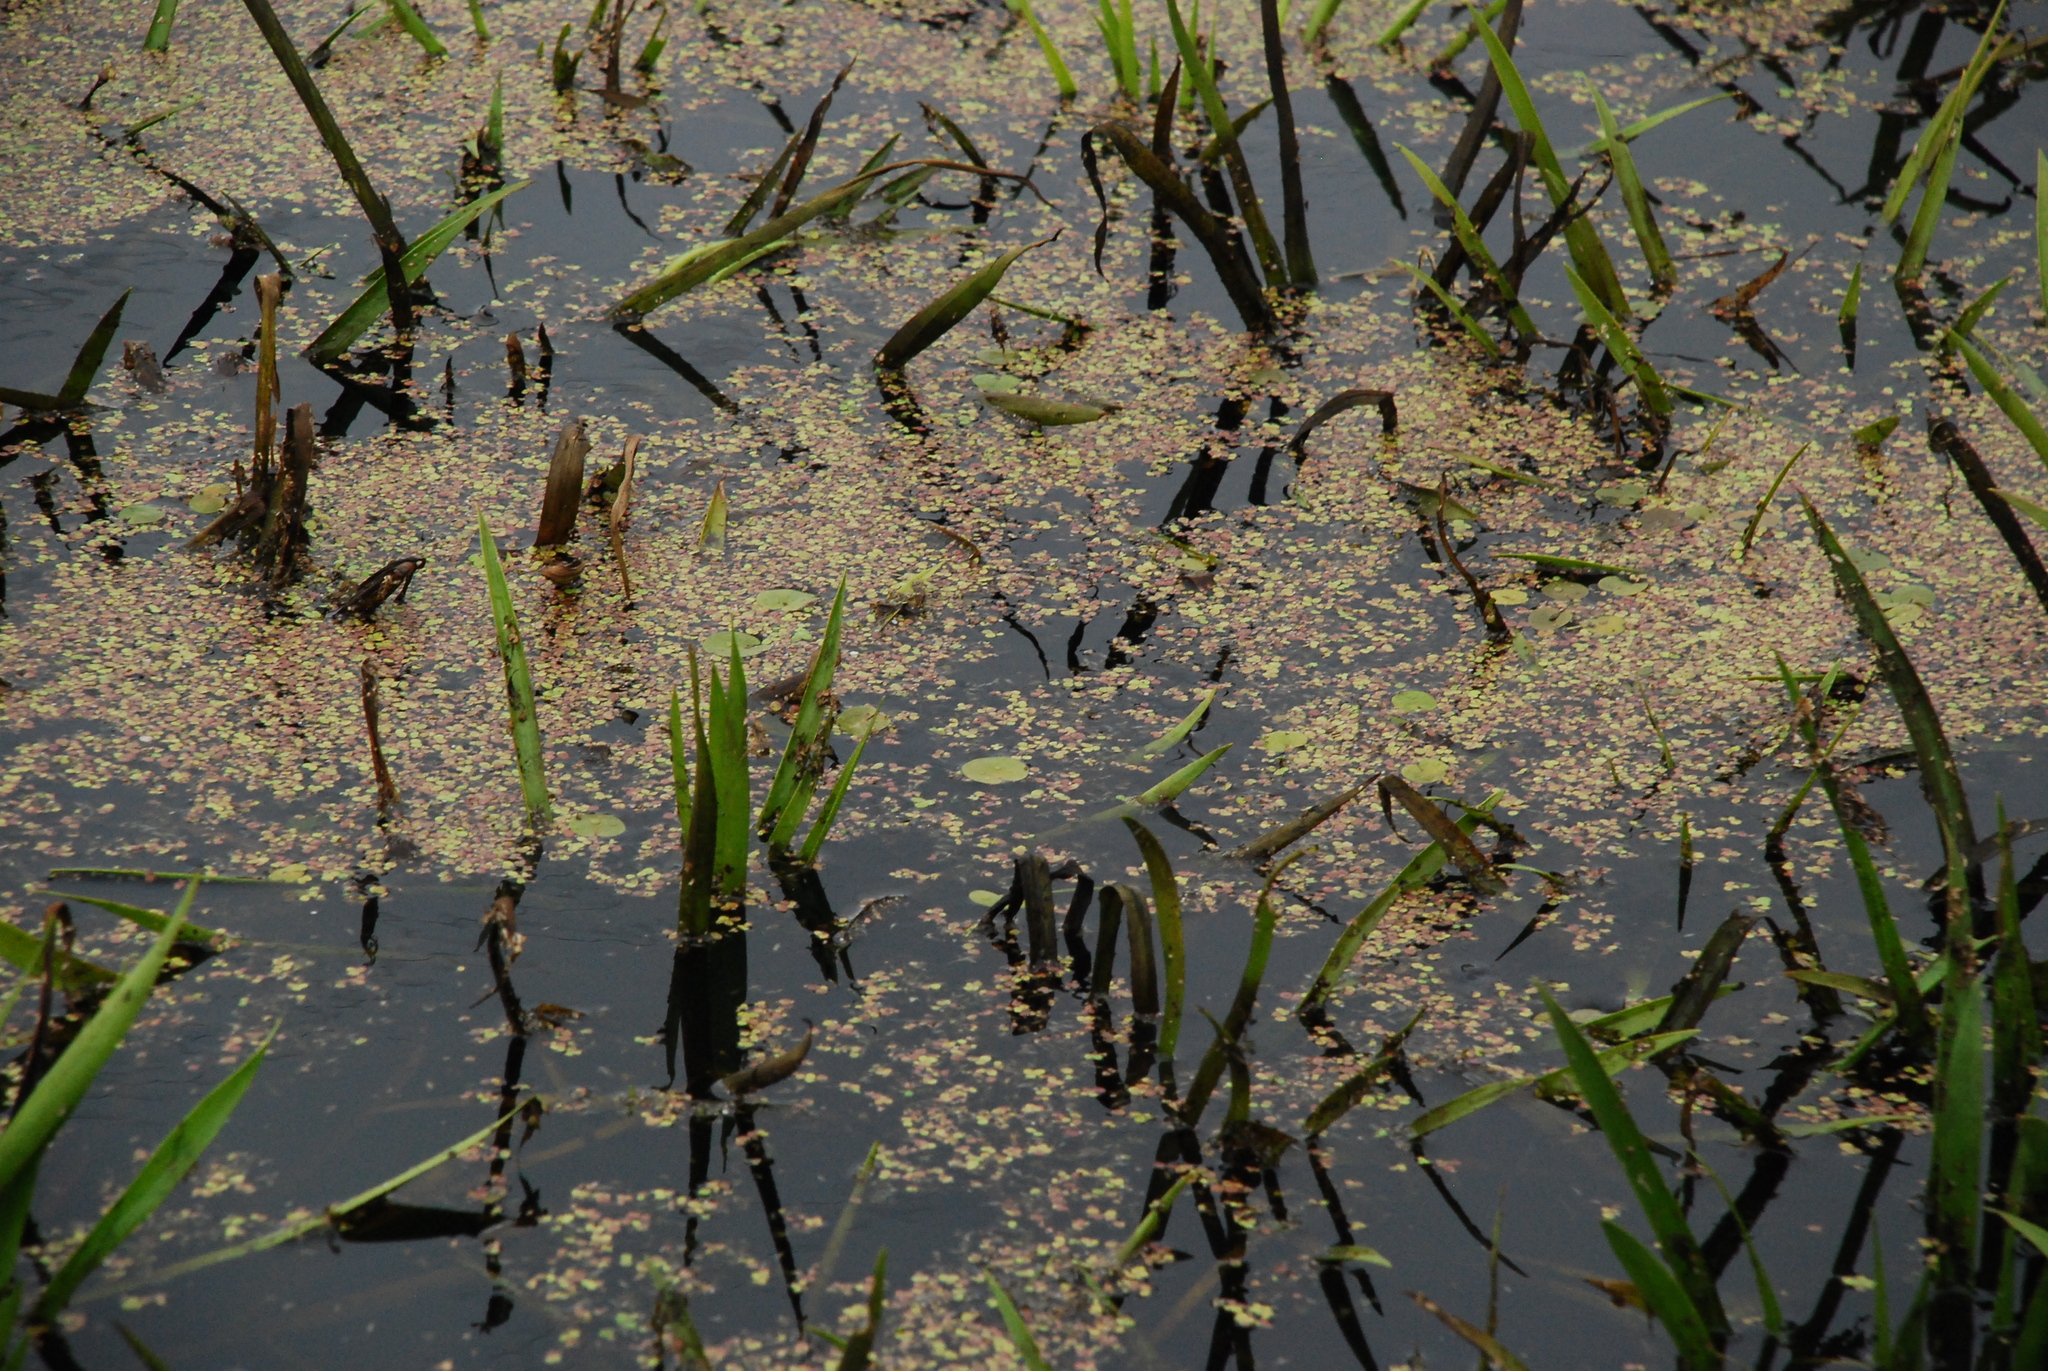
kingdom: Plantae
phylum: Tracheophyta
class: Liliopsida
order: Alismatales
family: Hydrocharitaceae
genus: Stratiotes
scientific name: Stratiotes aloides
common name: Water-soldier
